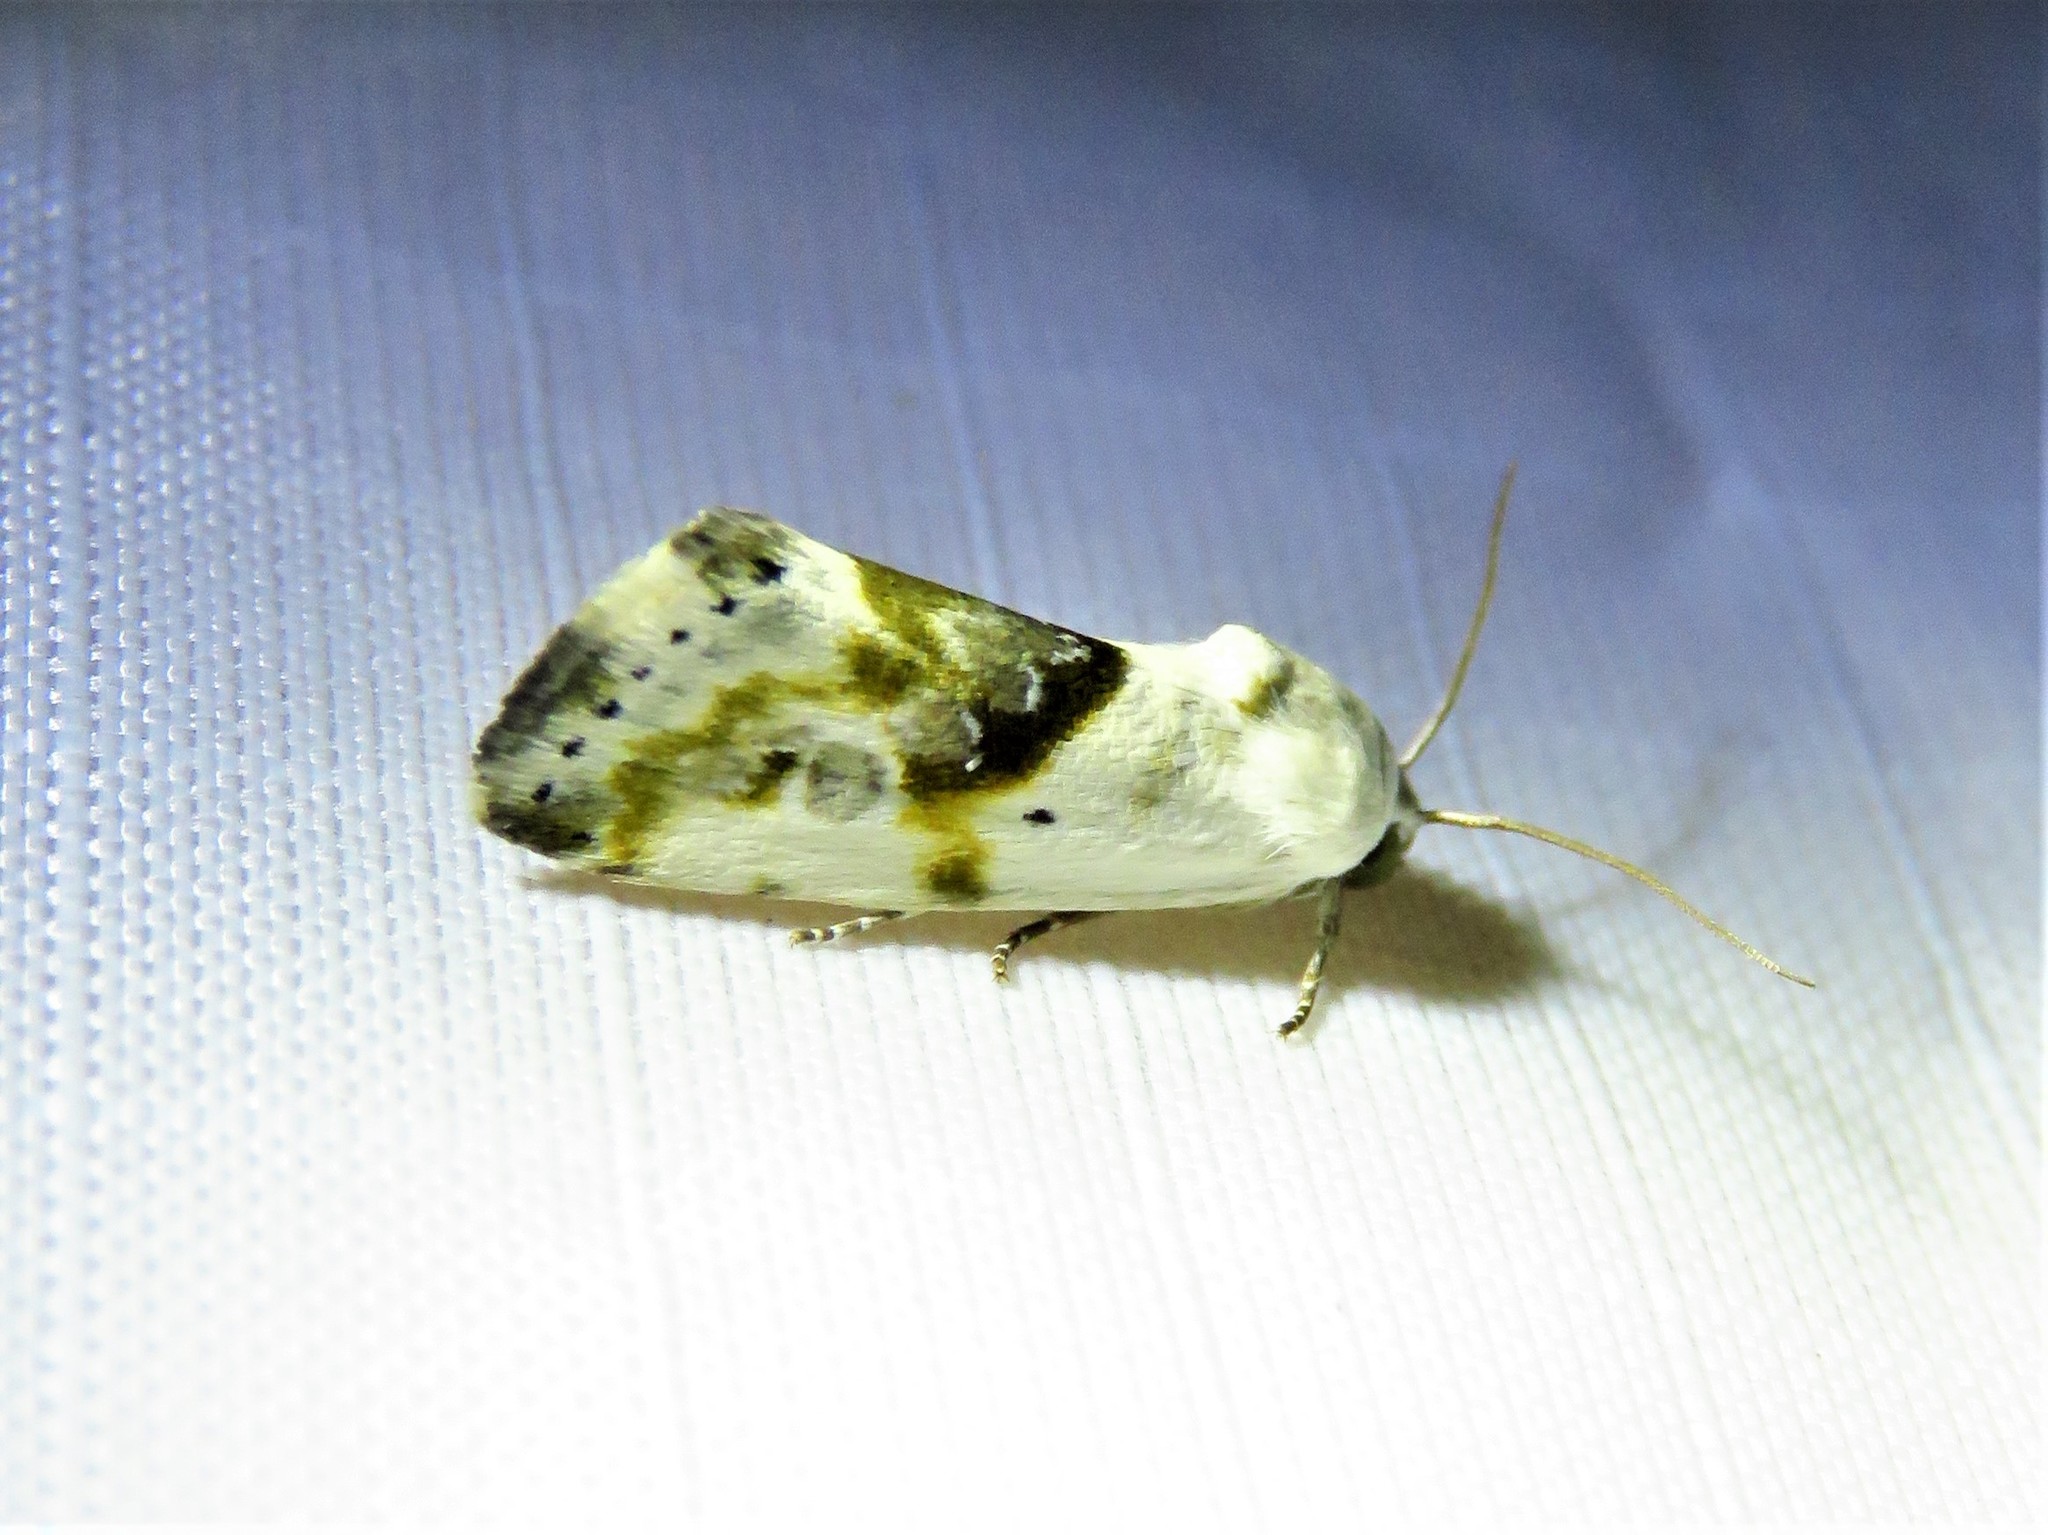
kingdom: Animalia
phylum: Arthropoda
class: Insecta
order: Lepidoptera
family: Noctuidae
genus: Acontia
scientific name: Acontia candefacta
